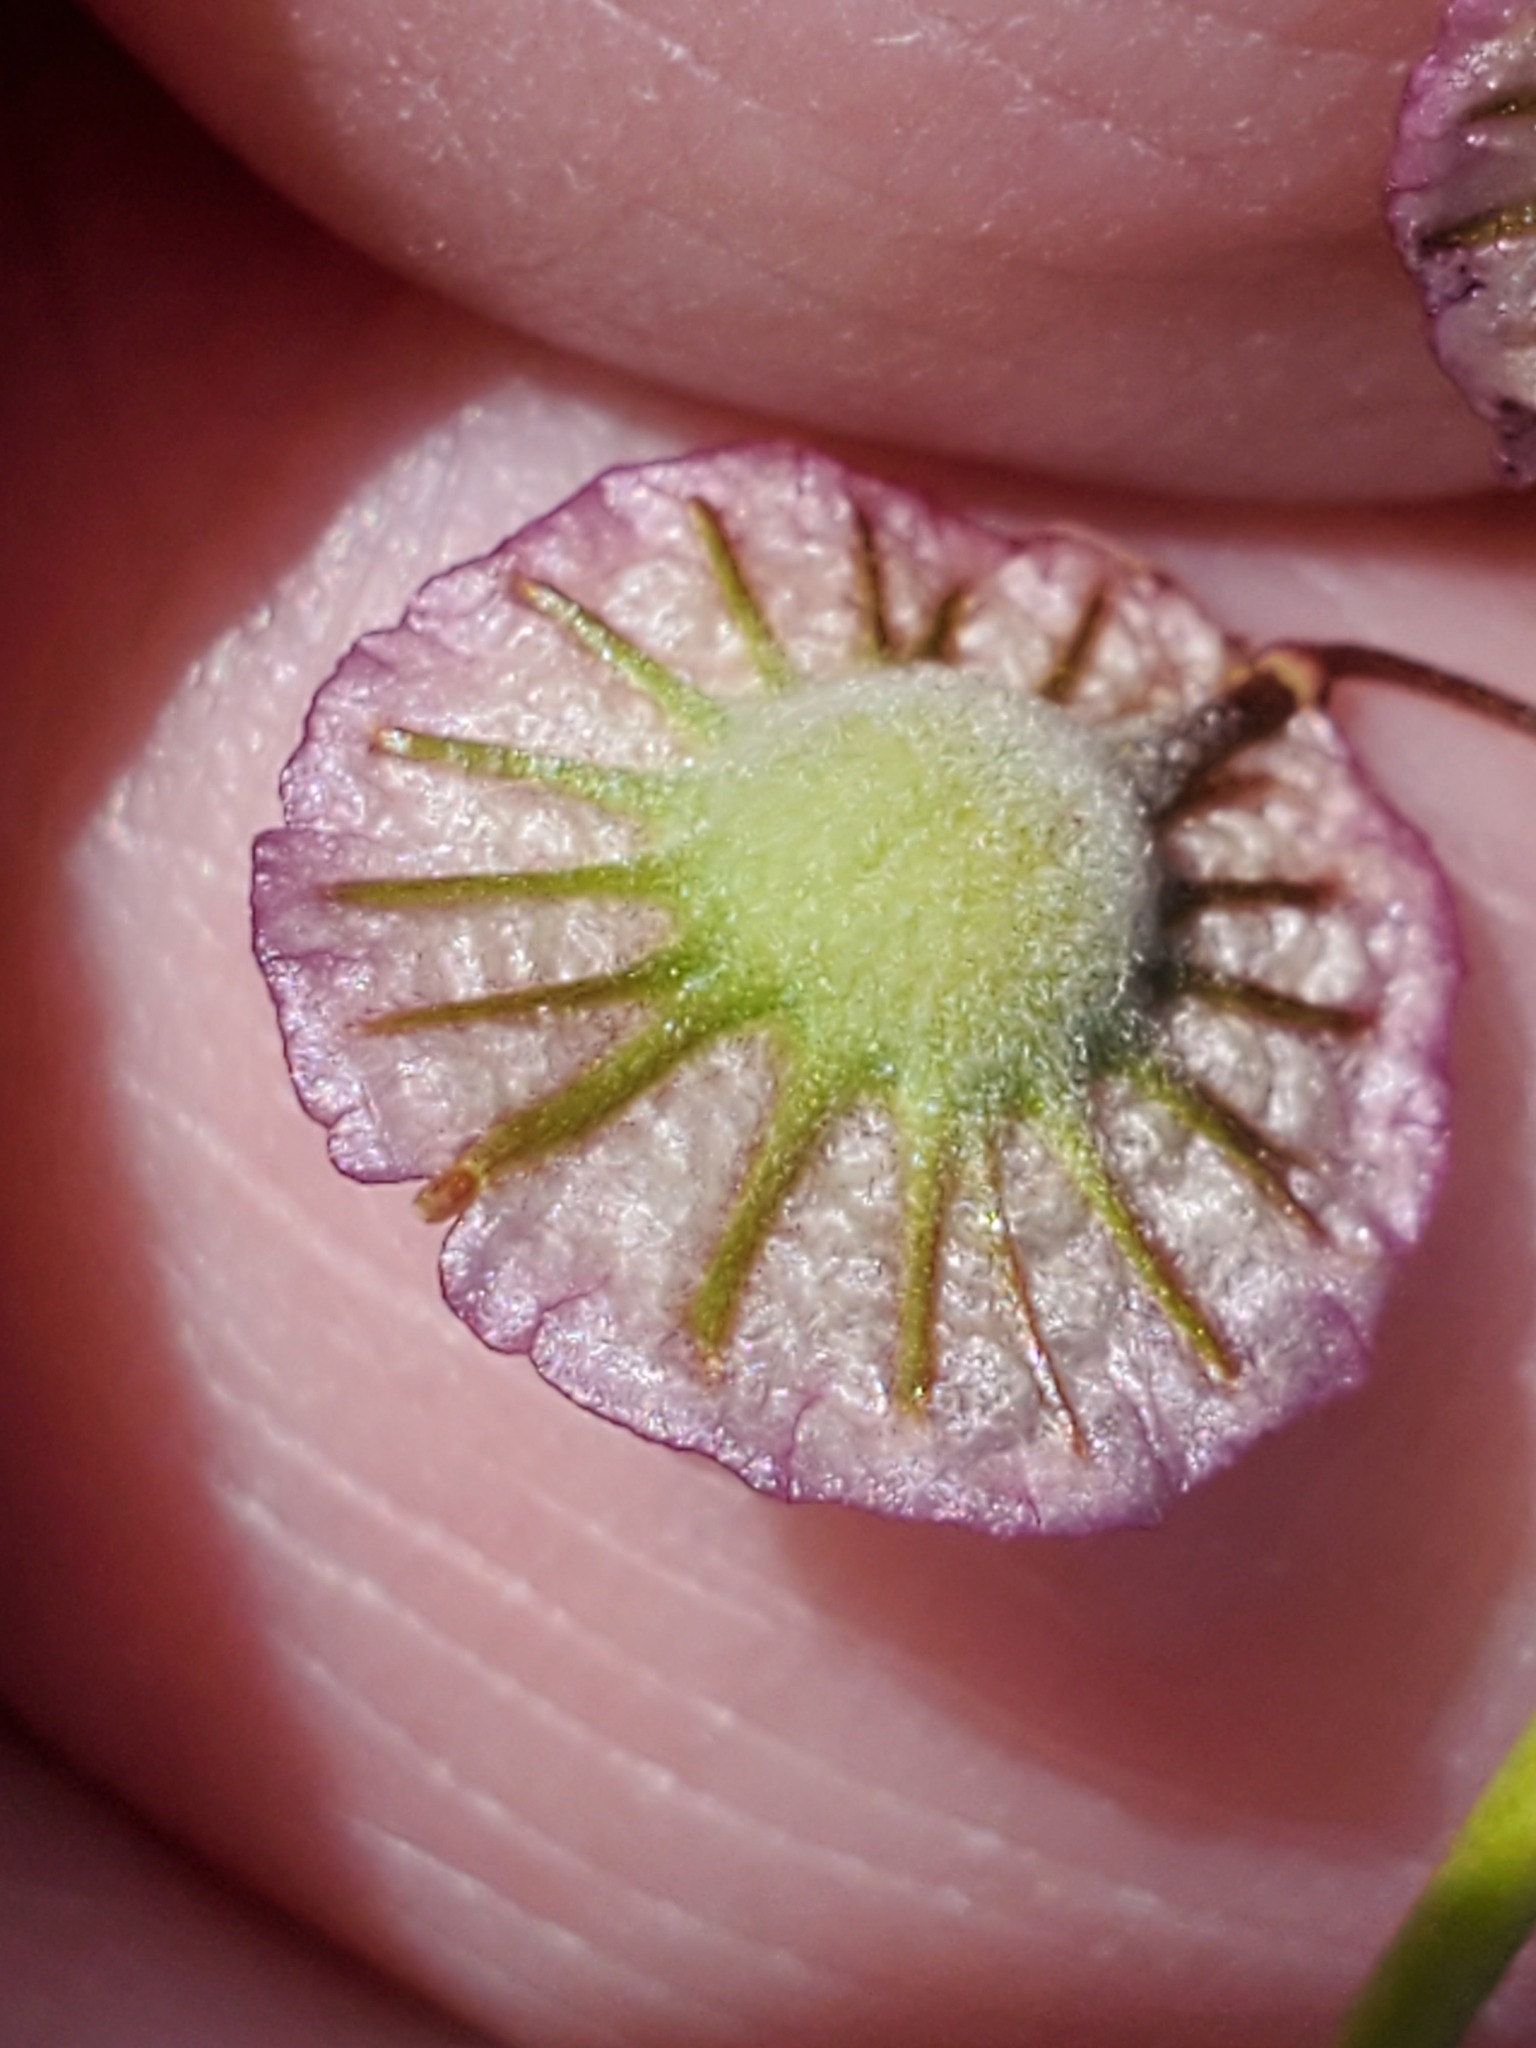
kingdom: Plantae
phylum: Tracheophyta
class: Magnoliopsida
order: Brassicales
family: Brassicaceae
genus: Thysanocarpus
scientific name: Thysanocarpus radians
